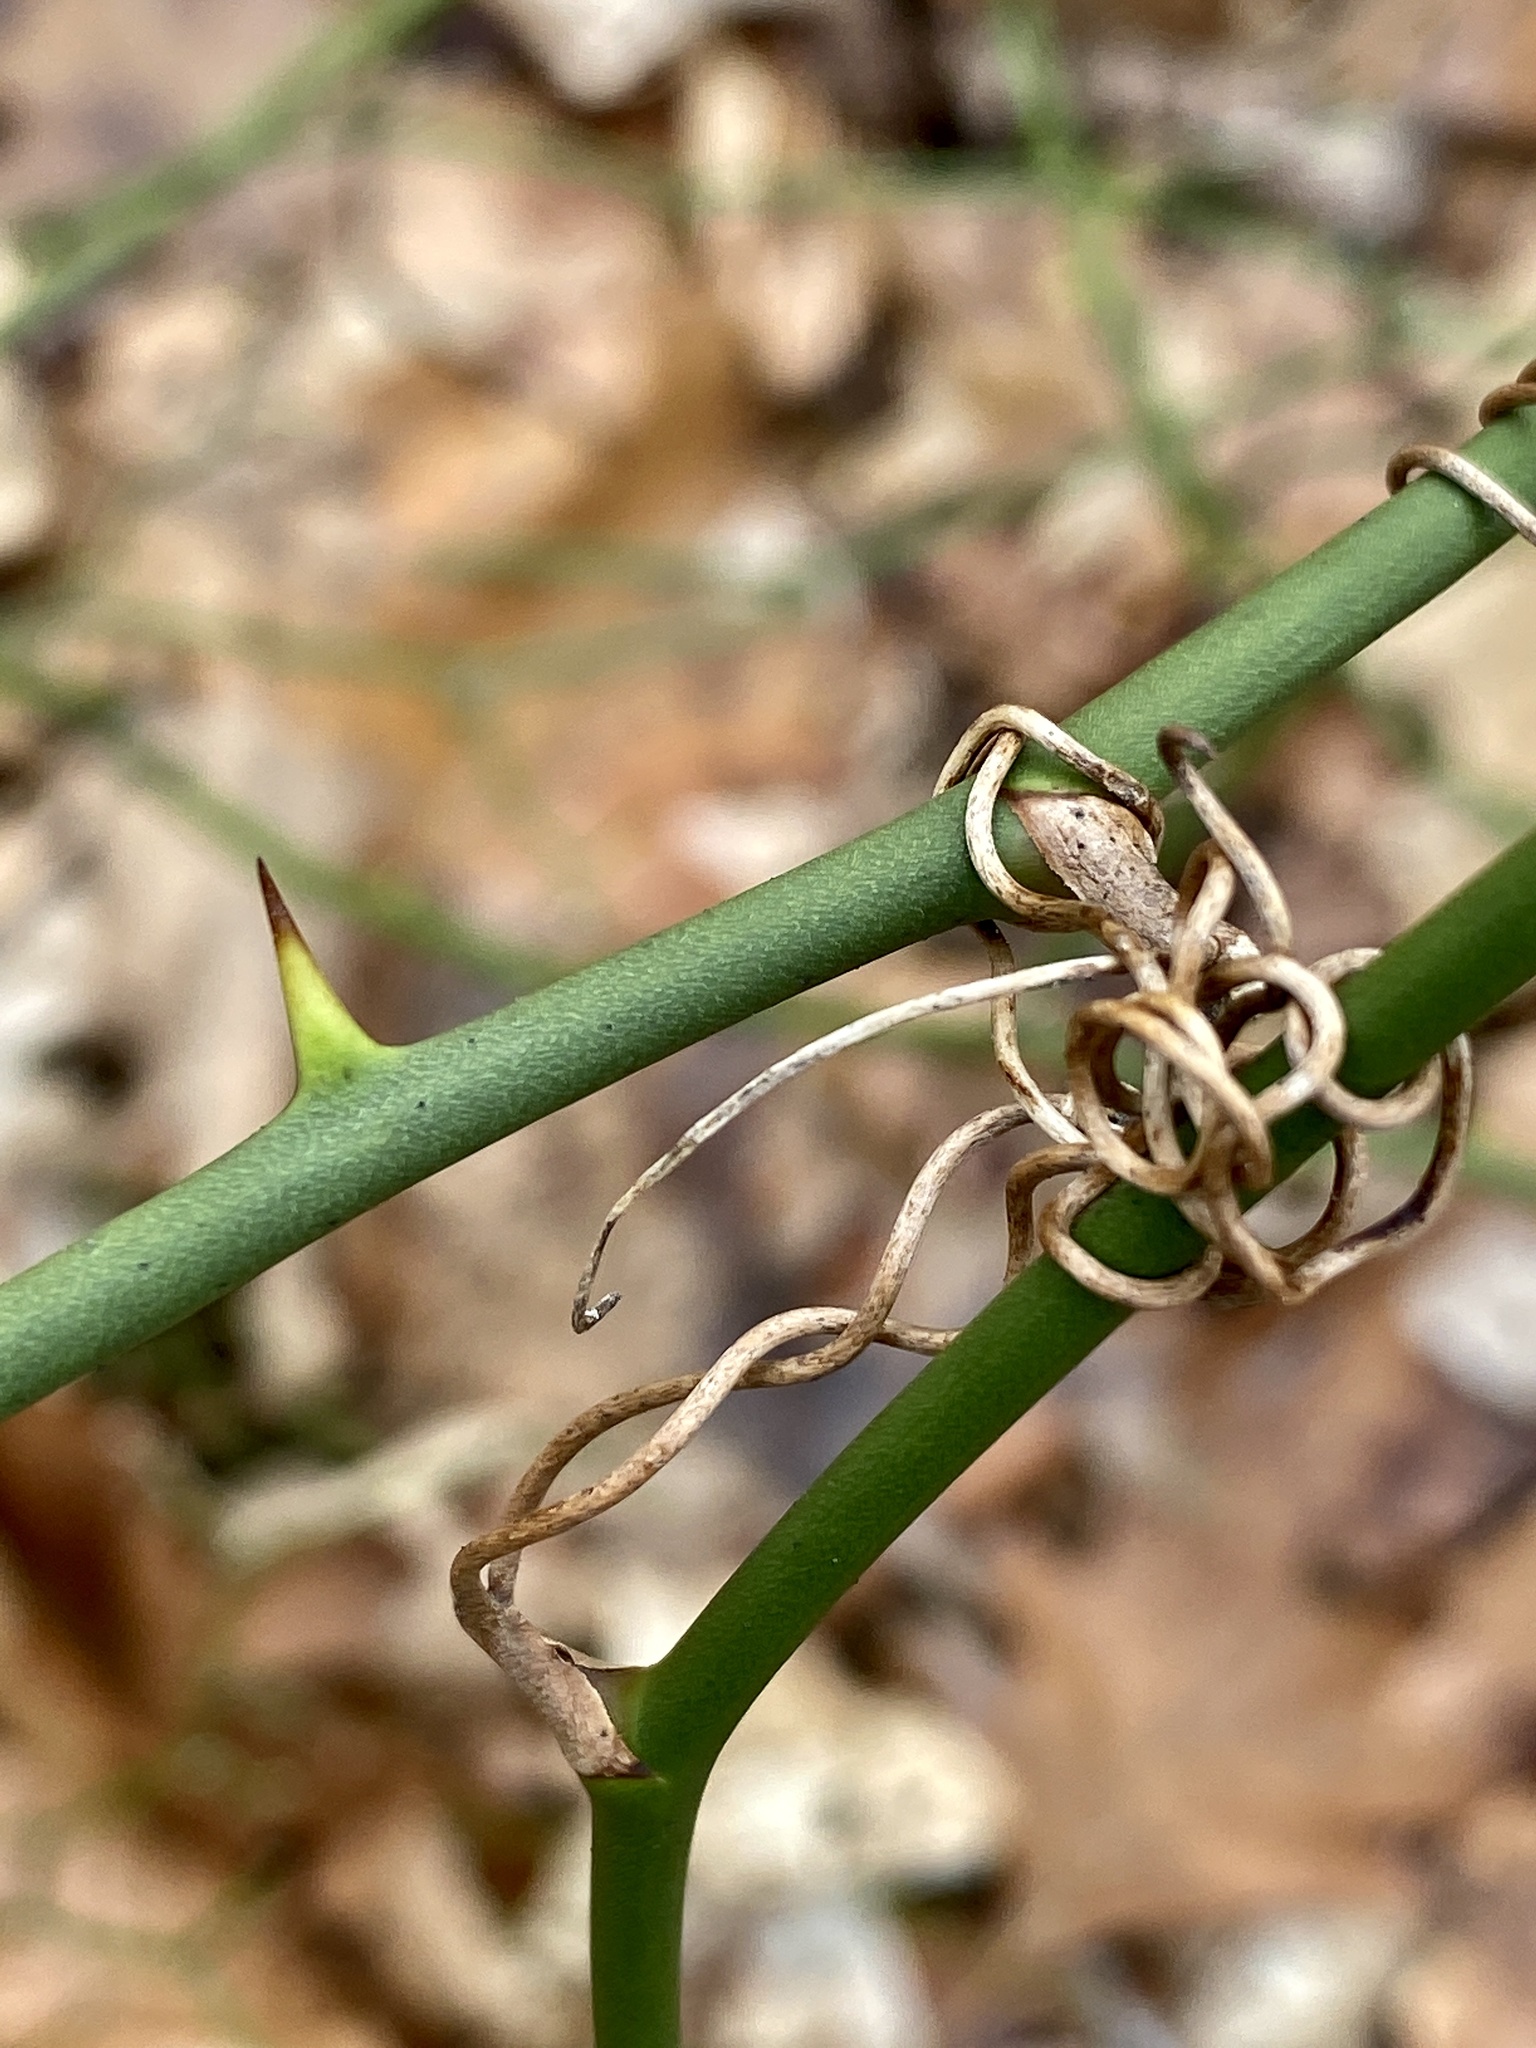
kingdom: Plantae
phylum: Tracheophyta
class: Liliopsida
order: Liliales
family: Smilacaceae
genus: Smilax
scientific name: Smilax rotundifolia
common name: Bullbriar
